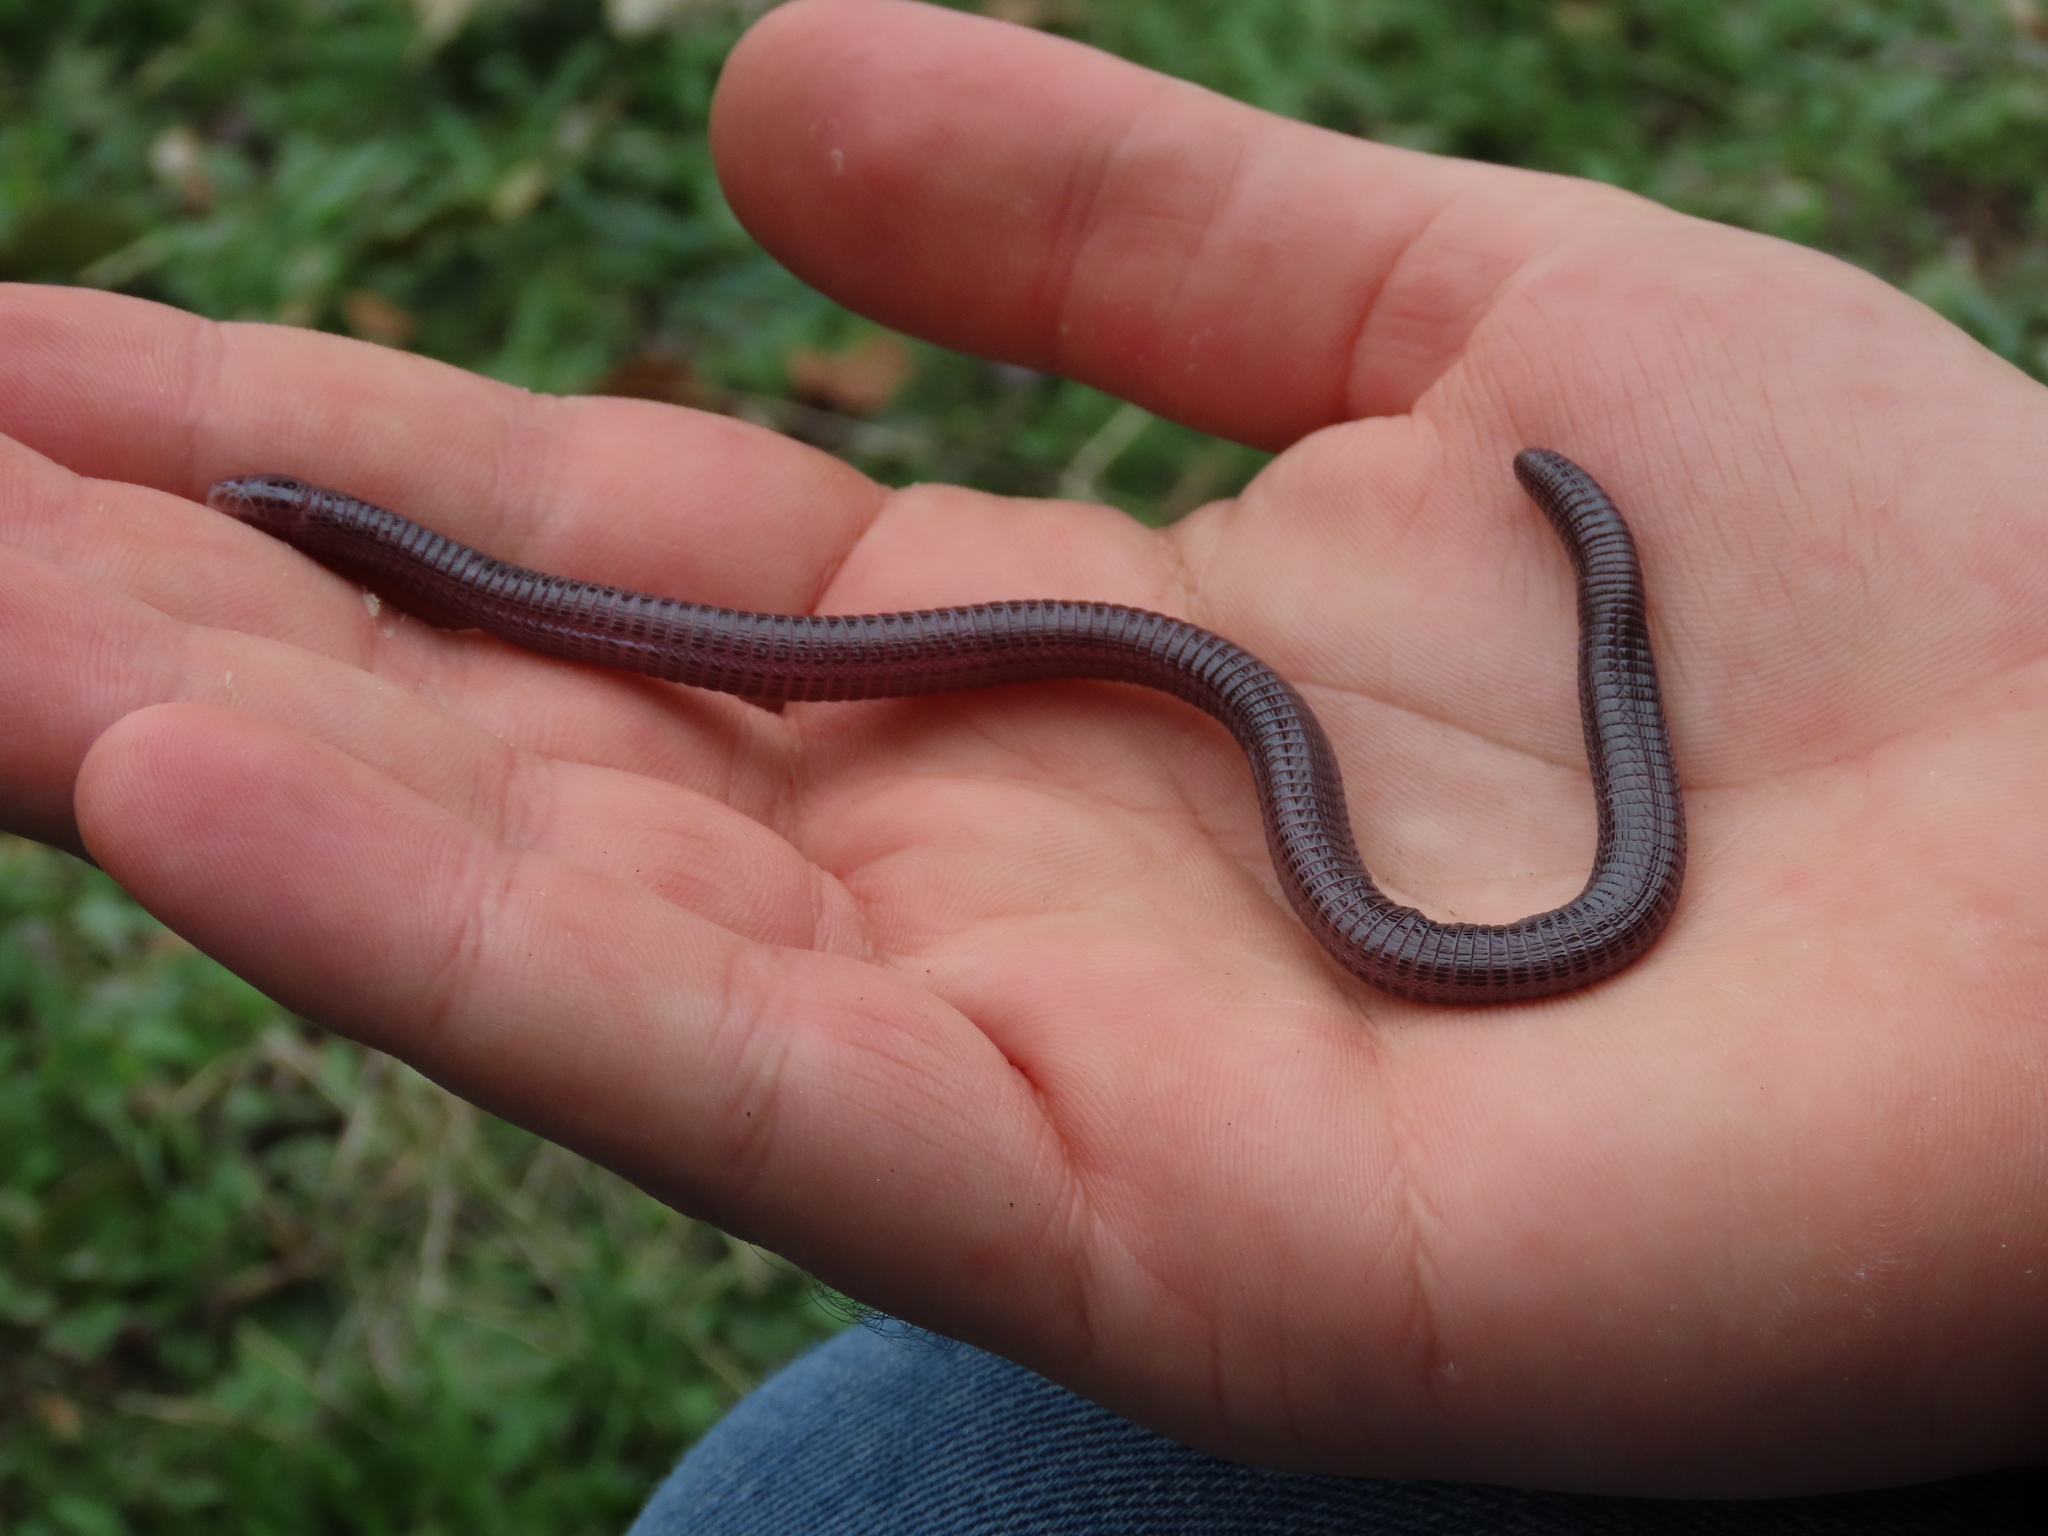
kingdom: Animalia
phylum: Chordata
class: Squamata
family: Blanidae
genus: Blanus
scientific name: Blanus vandellii
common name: Vandelli's worm lizard
